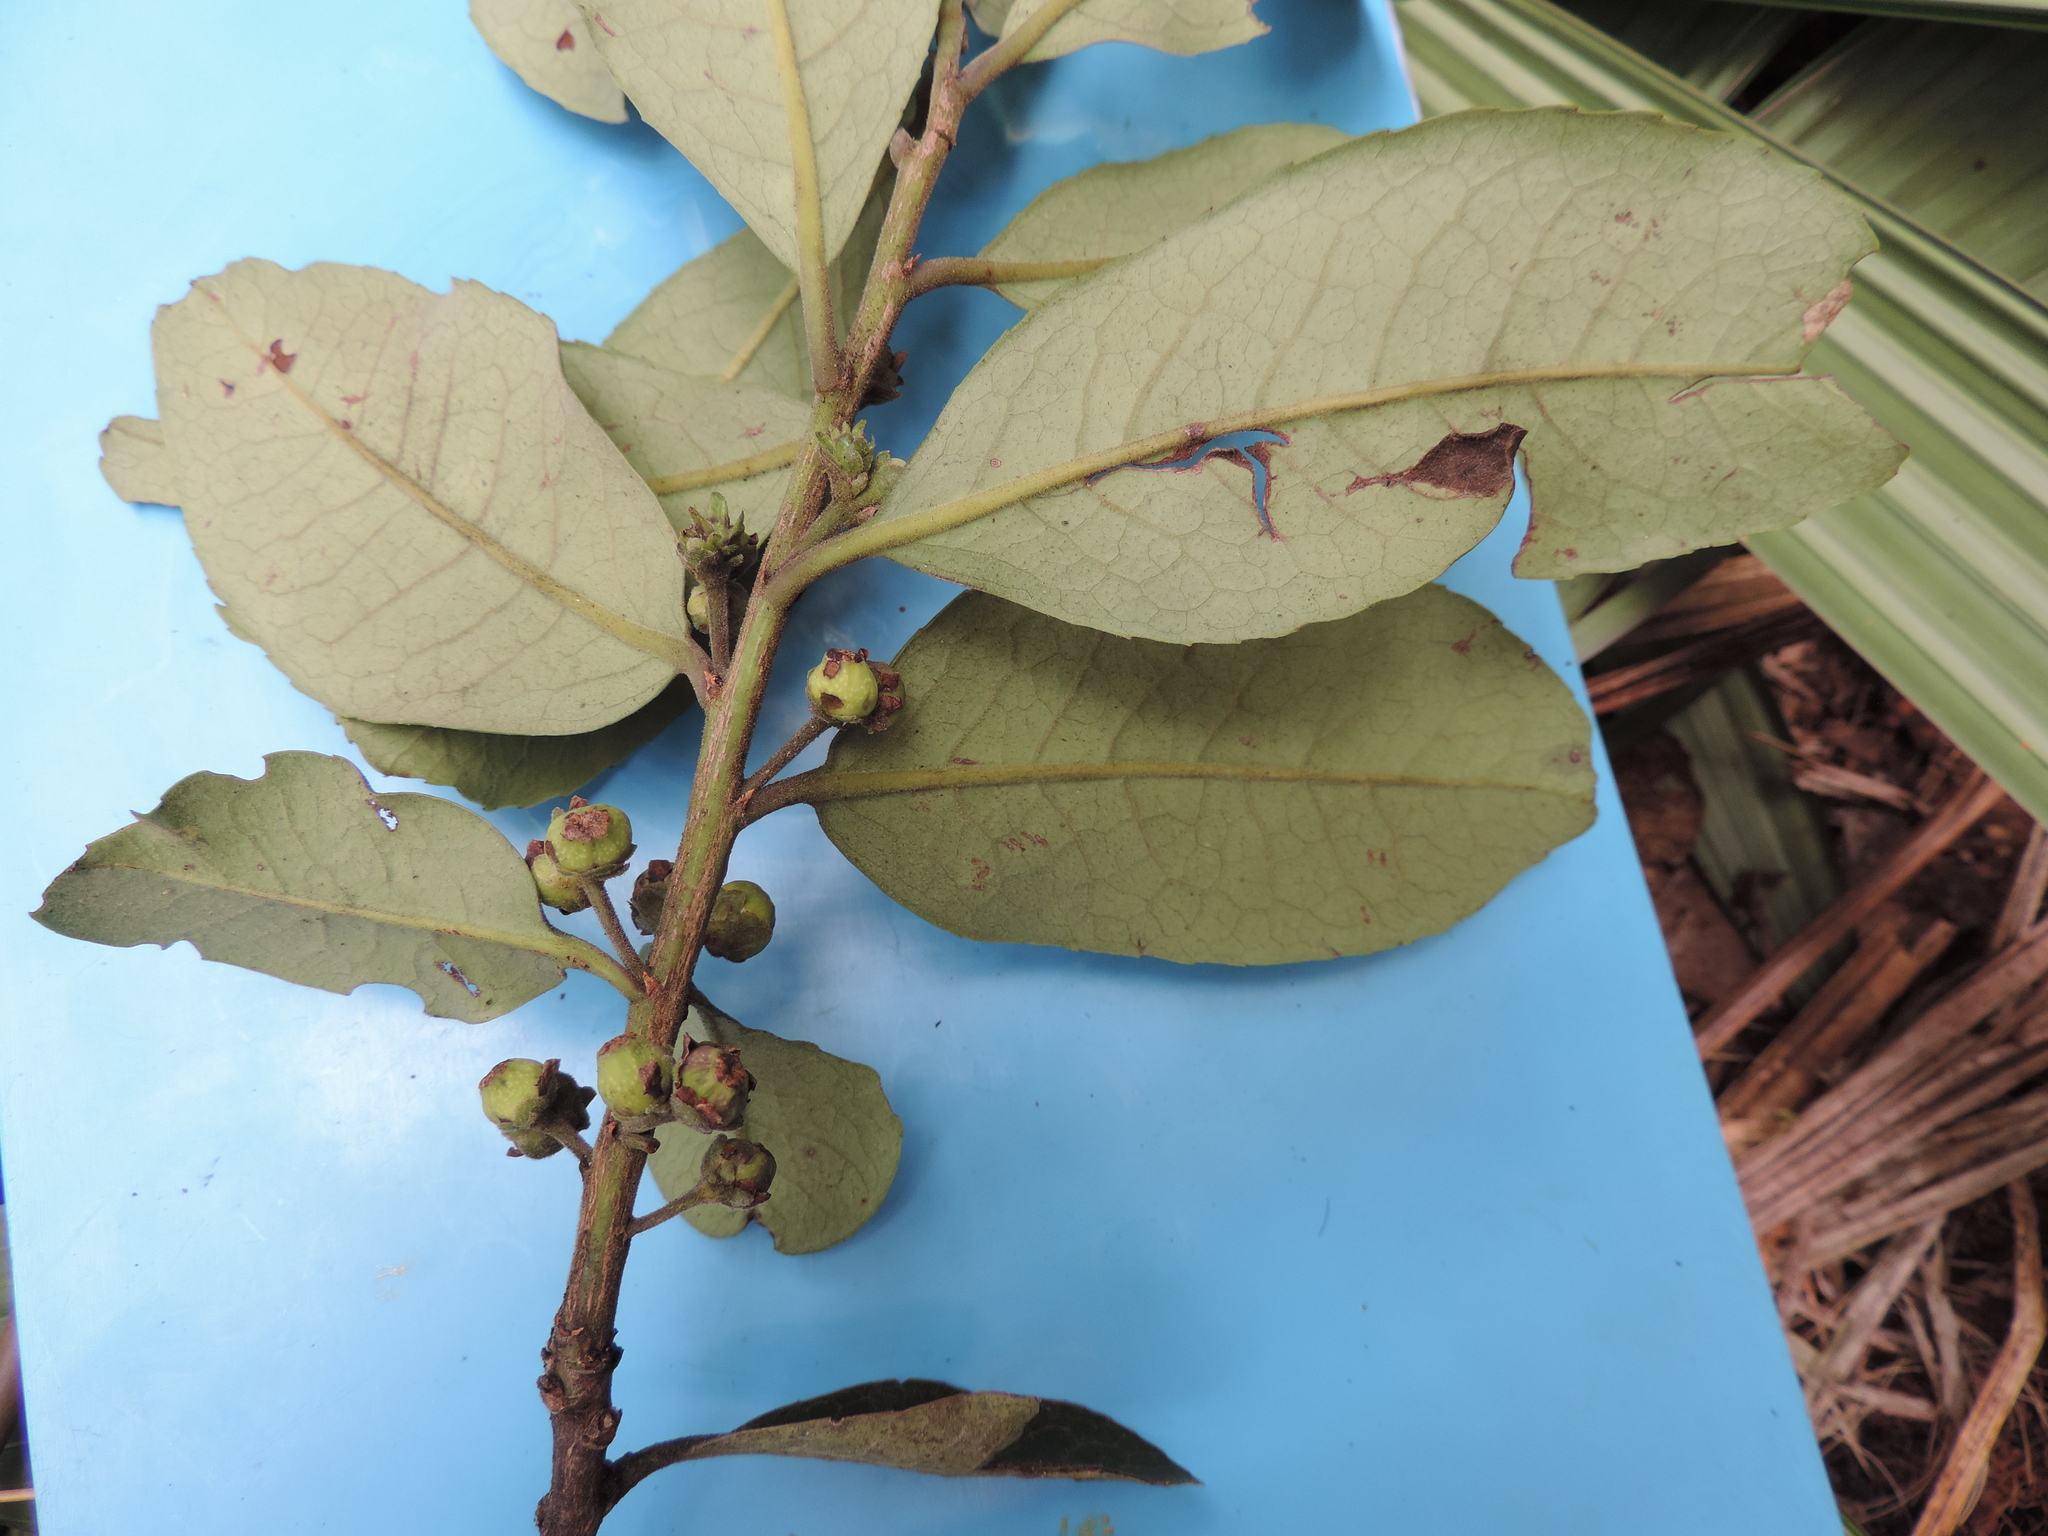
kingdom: Plantae
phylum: Tracheophyta
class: Magnoliopsida
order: Aquifoliales
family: Aquifoliaceae
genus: Ilex
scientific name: Ilex nervosa
